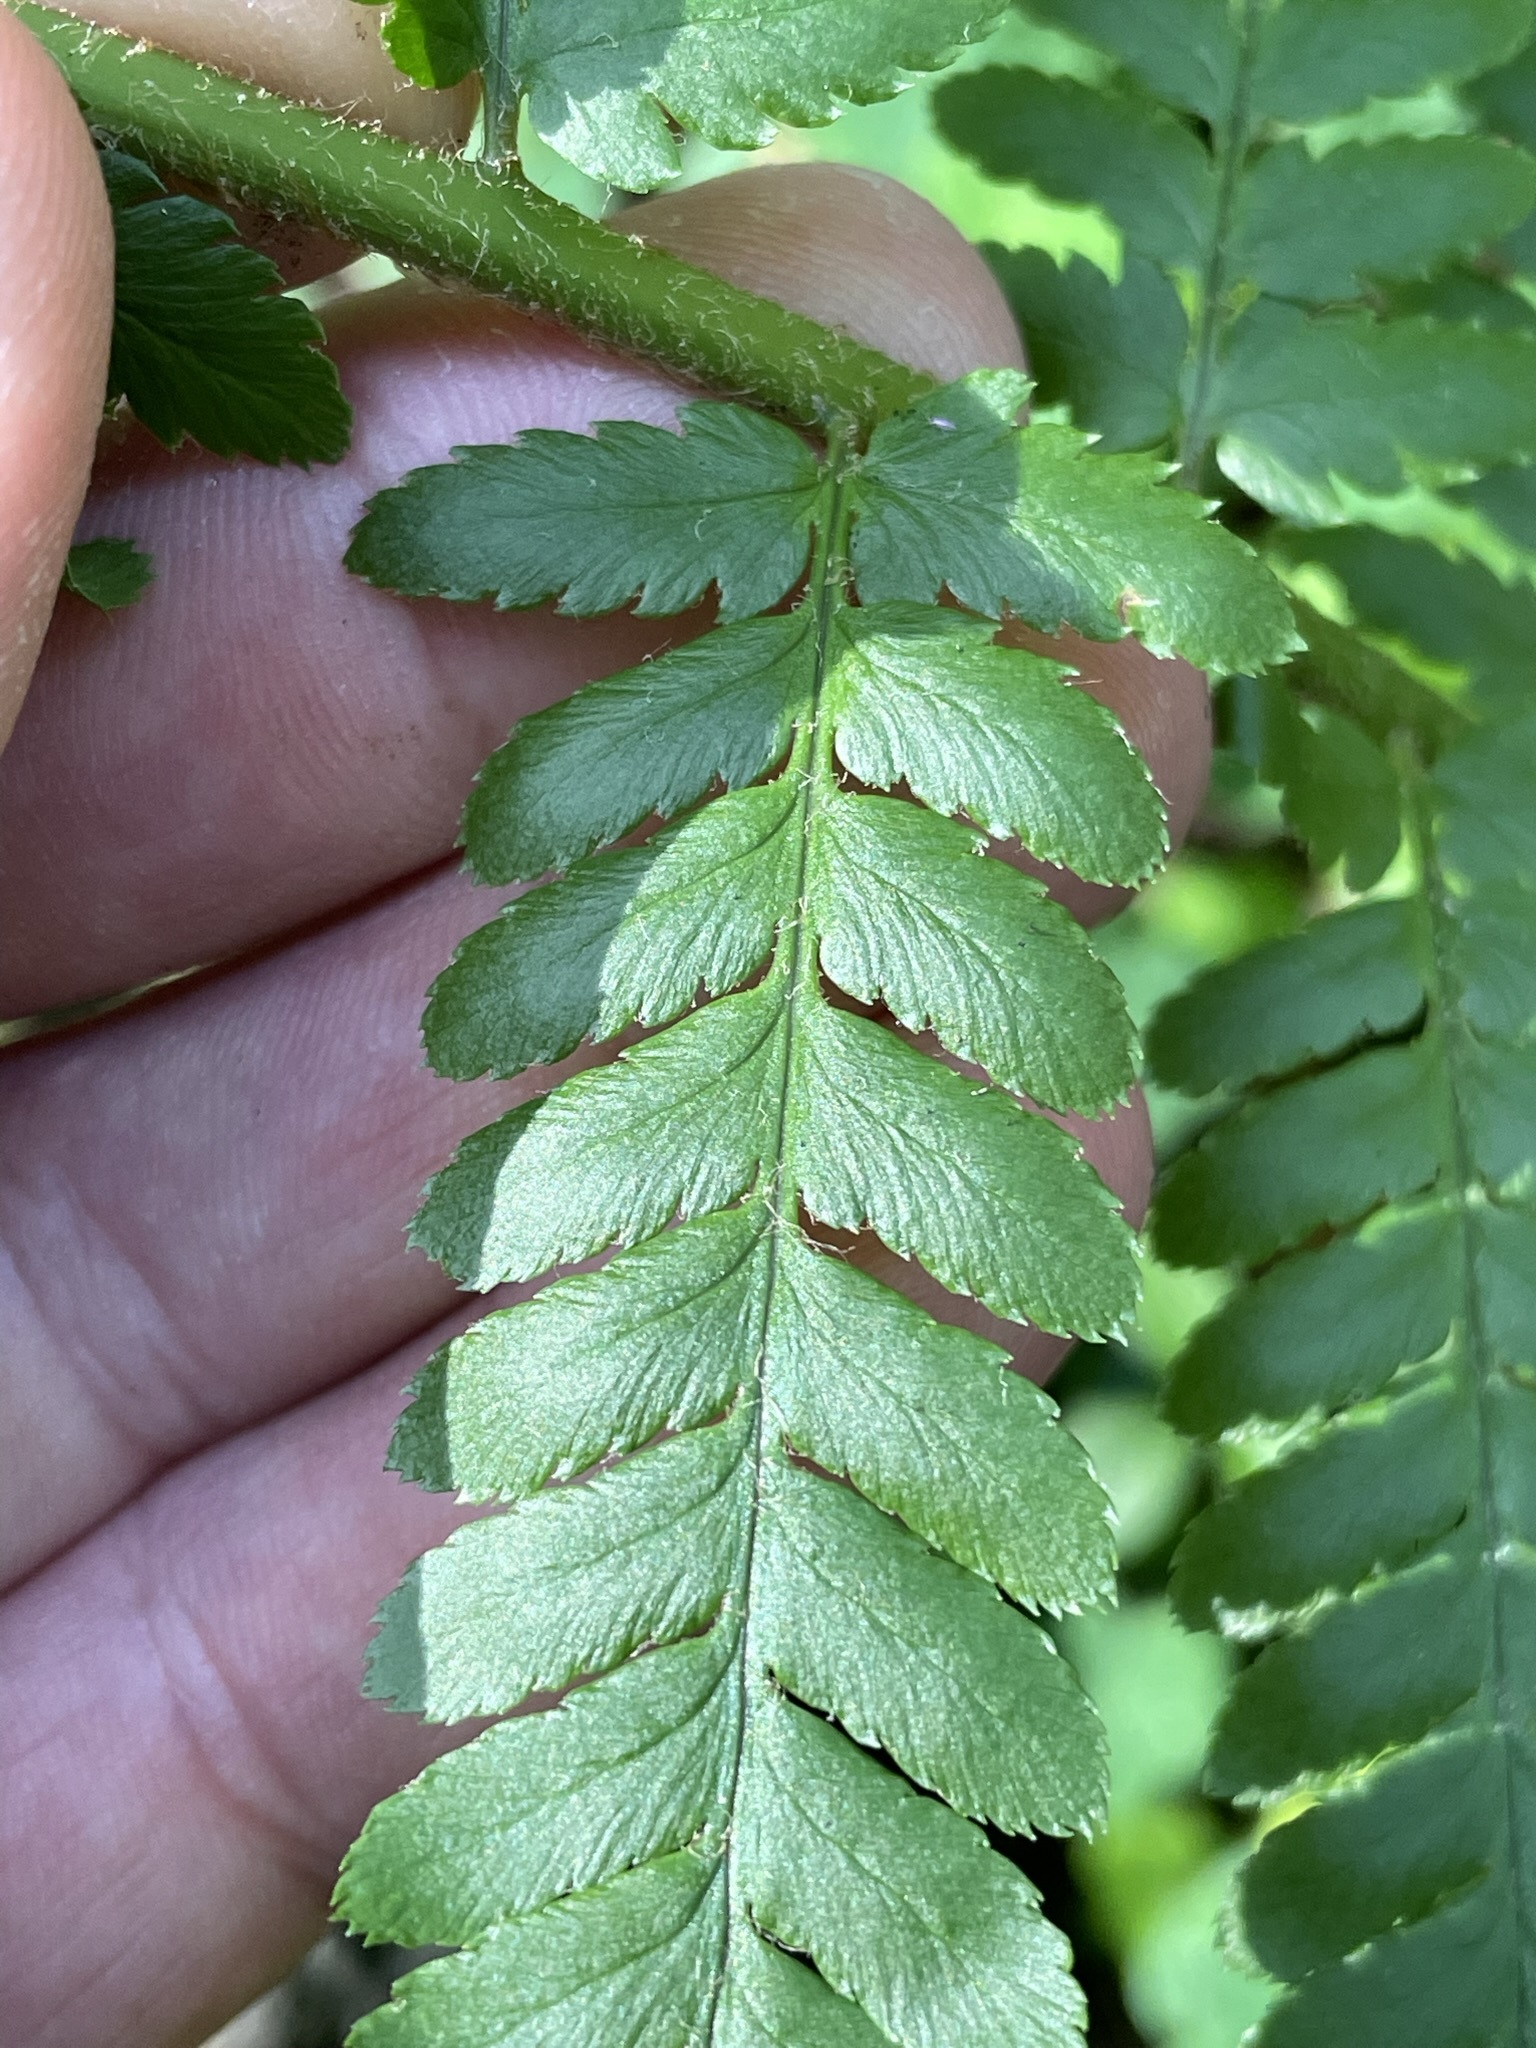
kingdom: Plantae
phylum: Tracheophyta
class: Polypodiopsida
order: Polypodiales
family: Dryopteridaceae
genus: Dryopteris
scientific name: Dryopteris filix-mas
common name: Male fern
